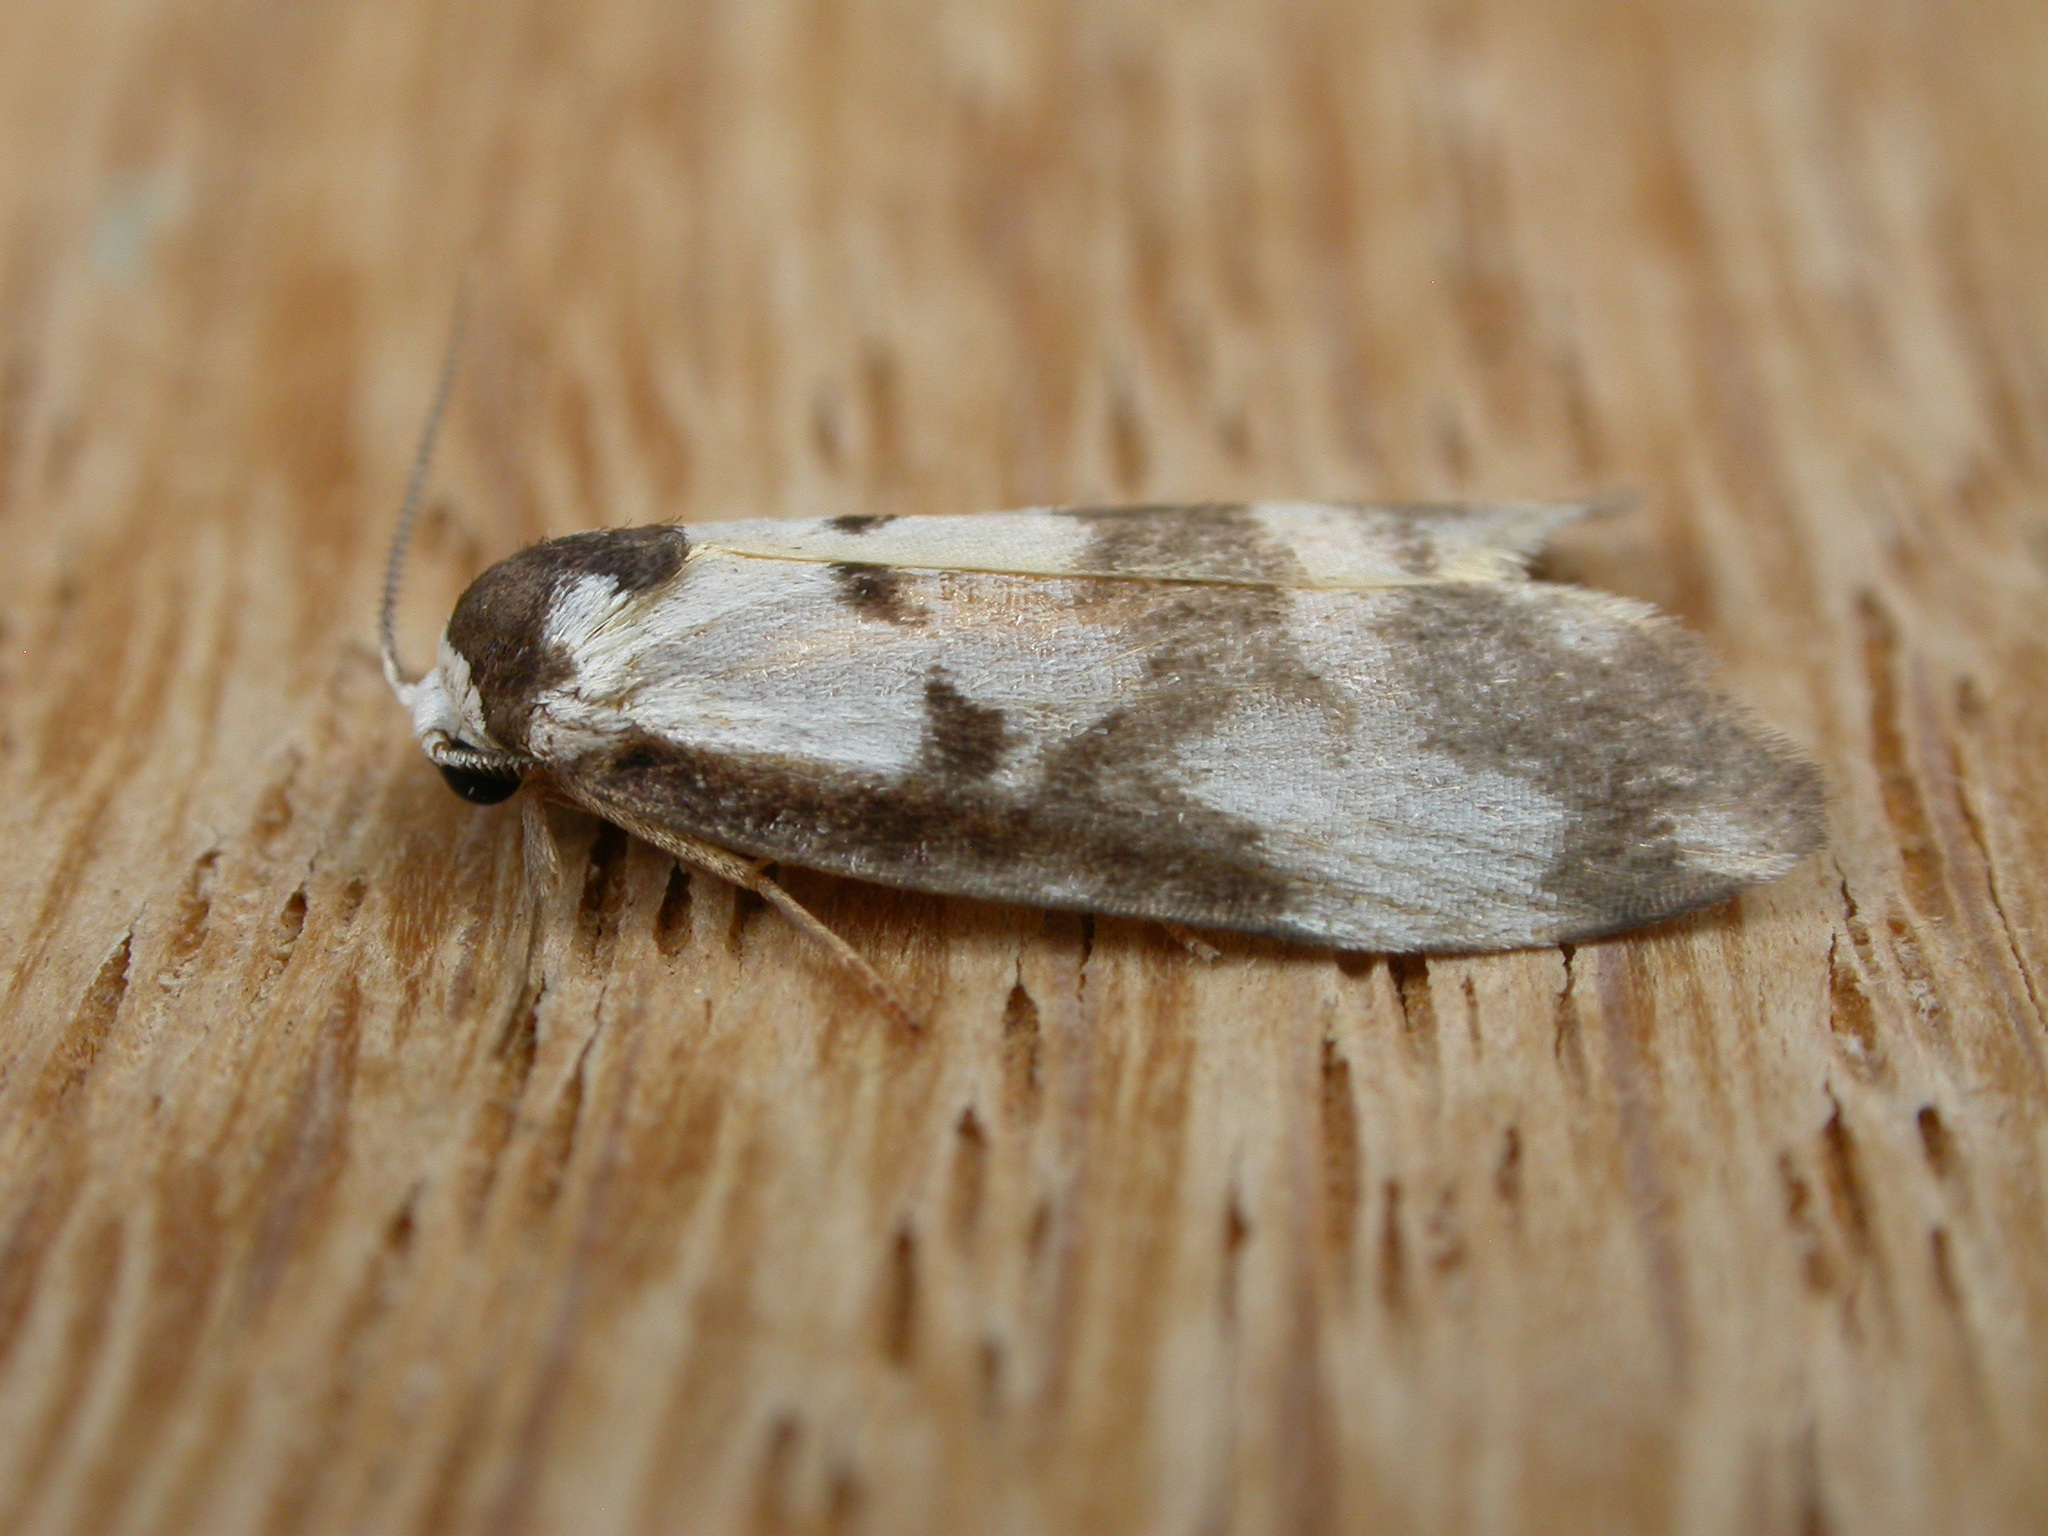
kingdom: Animalia
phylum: Arthropoda
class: Insecta
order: Lepidoptera
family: Erebidae
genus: Thallarcha
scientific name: Thallarcha pellax
